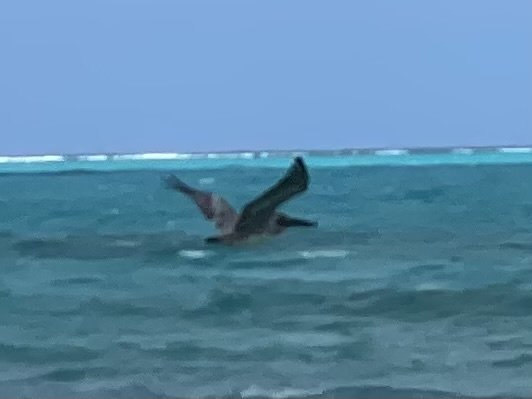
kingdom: Animalia
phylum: Chordata
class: Aves
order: Pelecaniformes
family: Pelecanidae
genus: Pelecanus
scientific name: Pelecanus occidentalis
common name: Brown pelican
